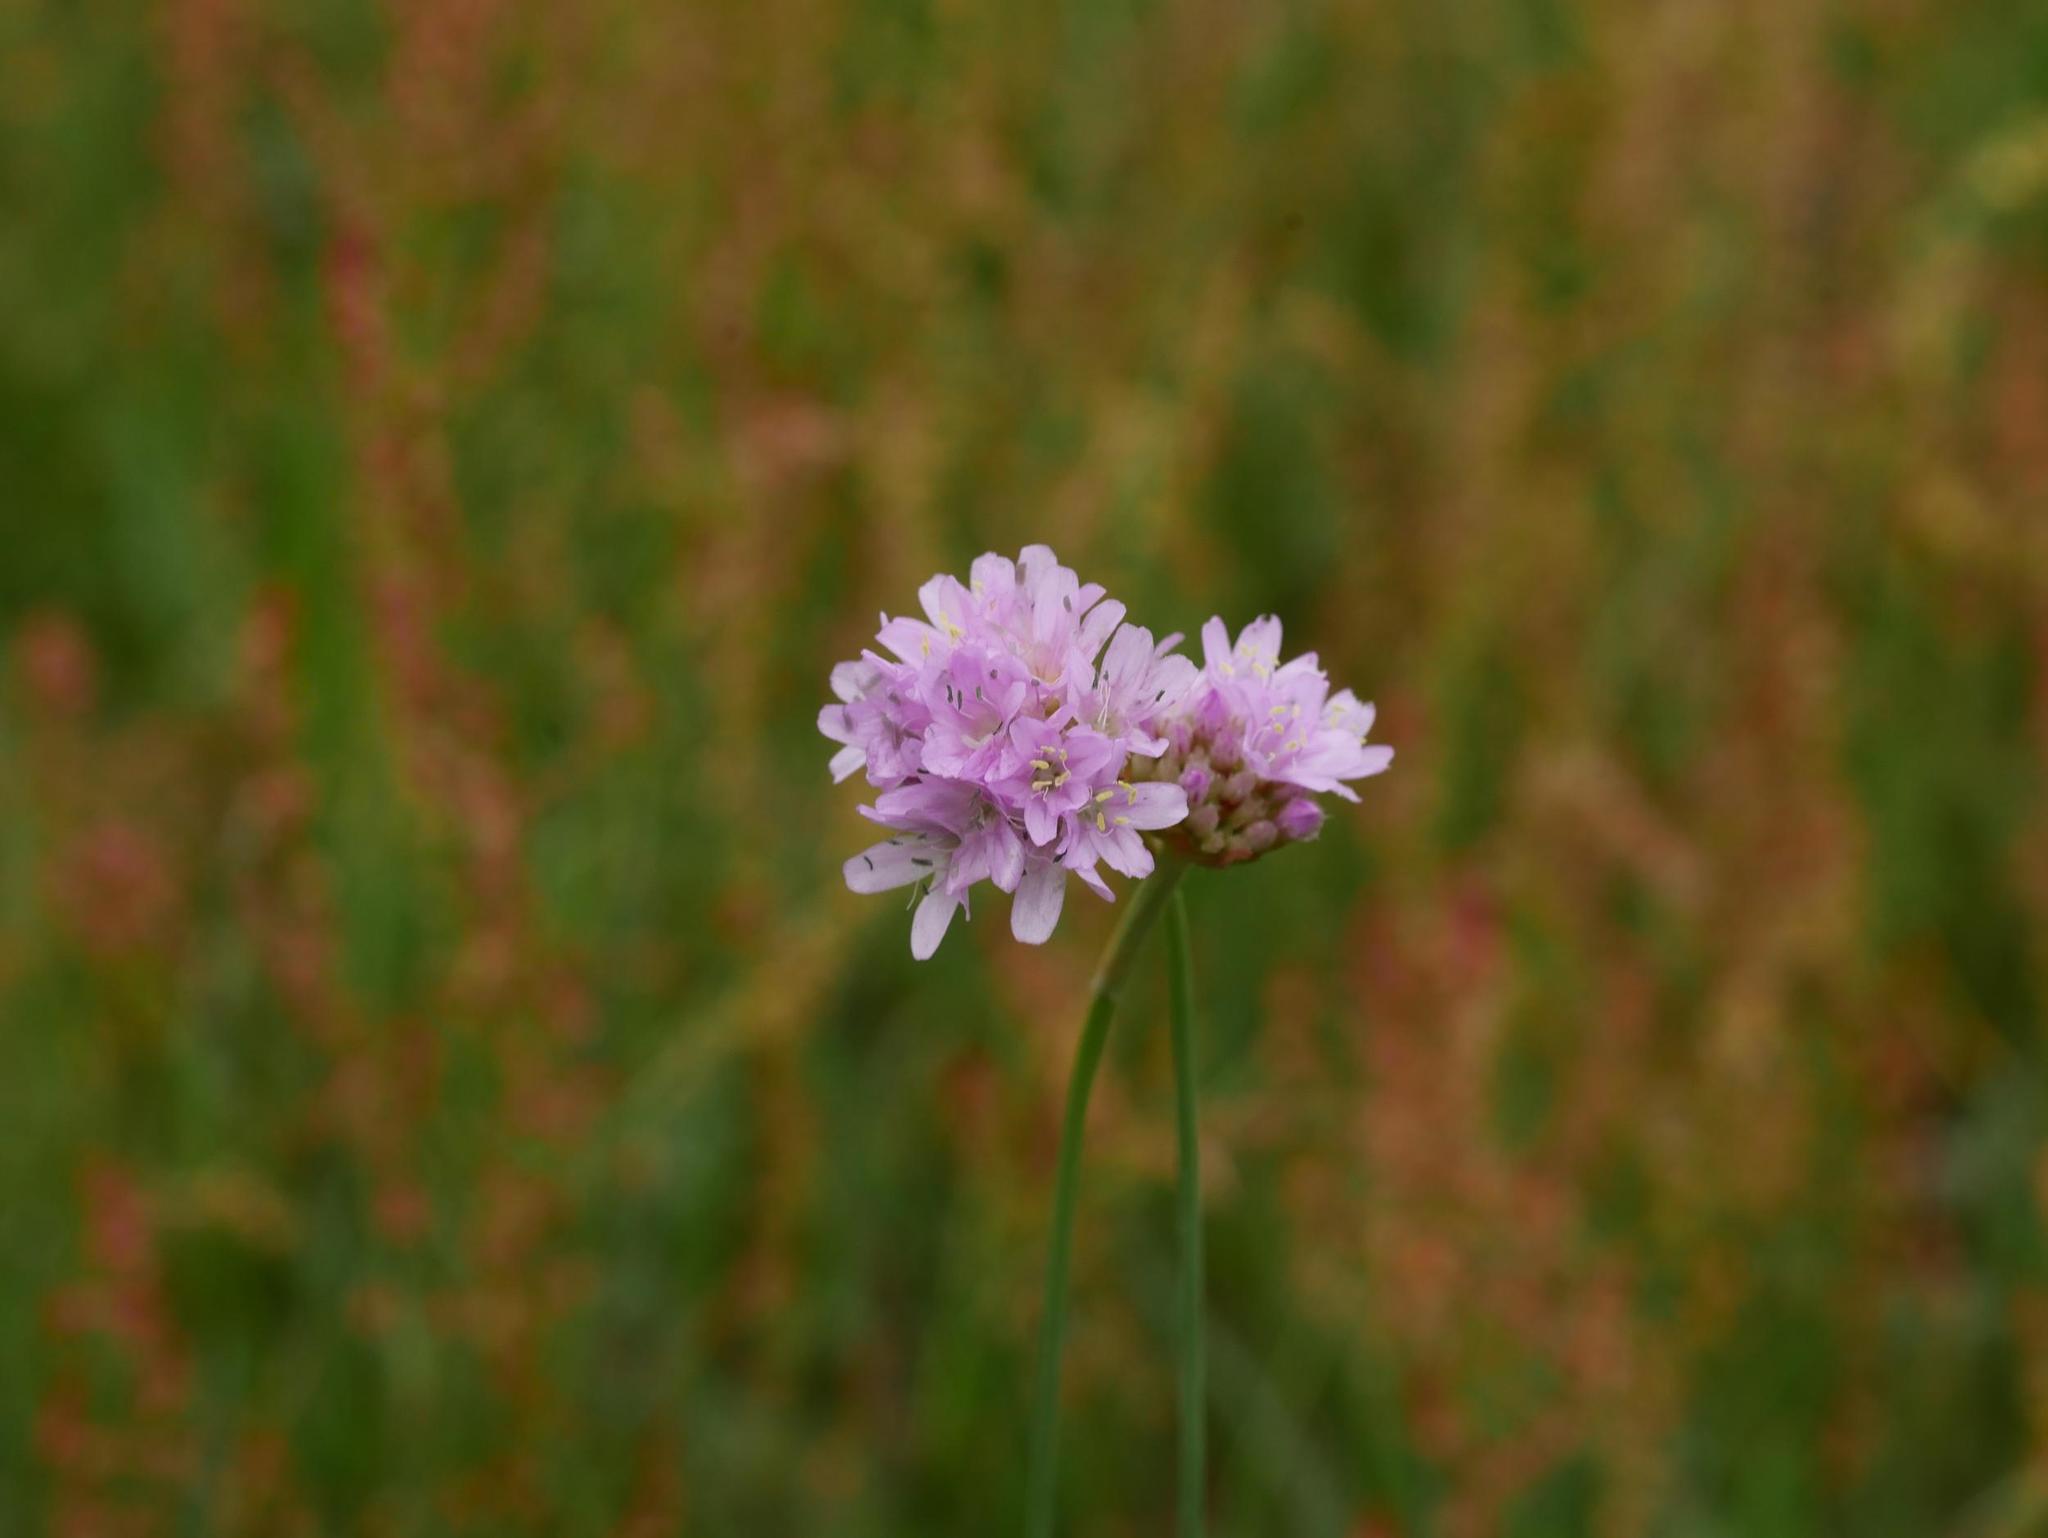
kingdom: Plantae
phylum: Tracheophyta
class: Magnoliopsida
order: Caryophyllales
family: Plumbaginaceae
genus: Armeria
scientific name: Armeria maritima
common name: Thrift
